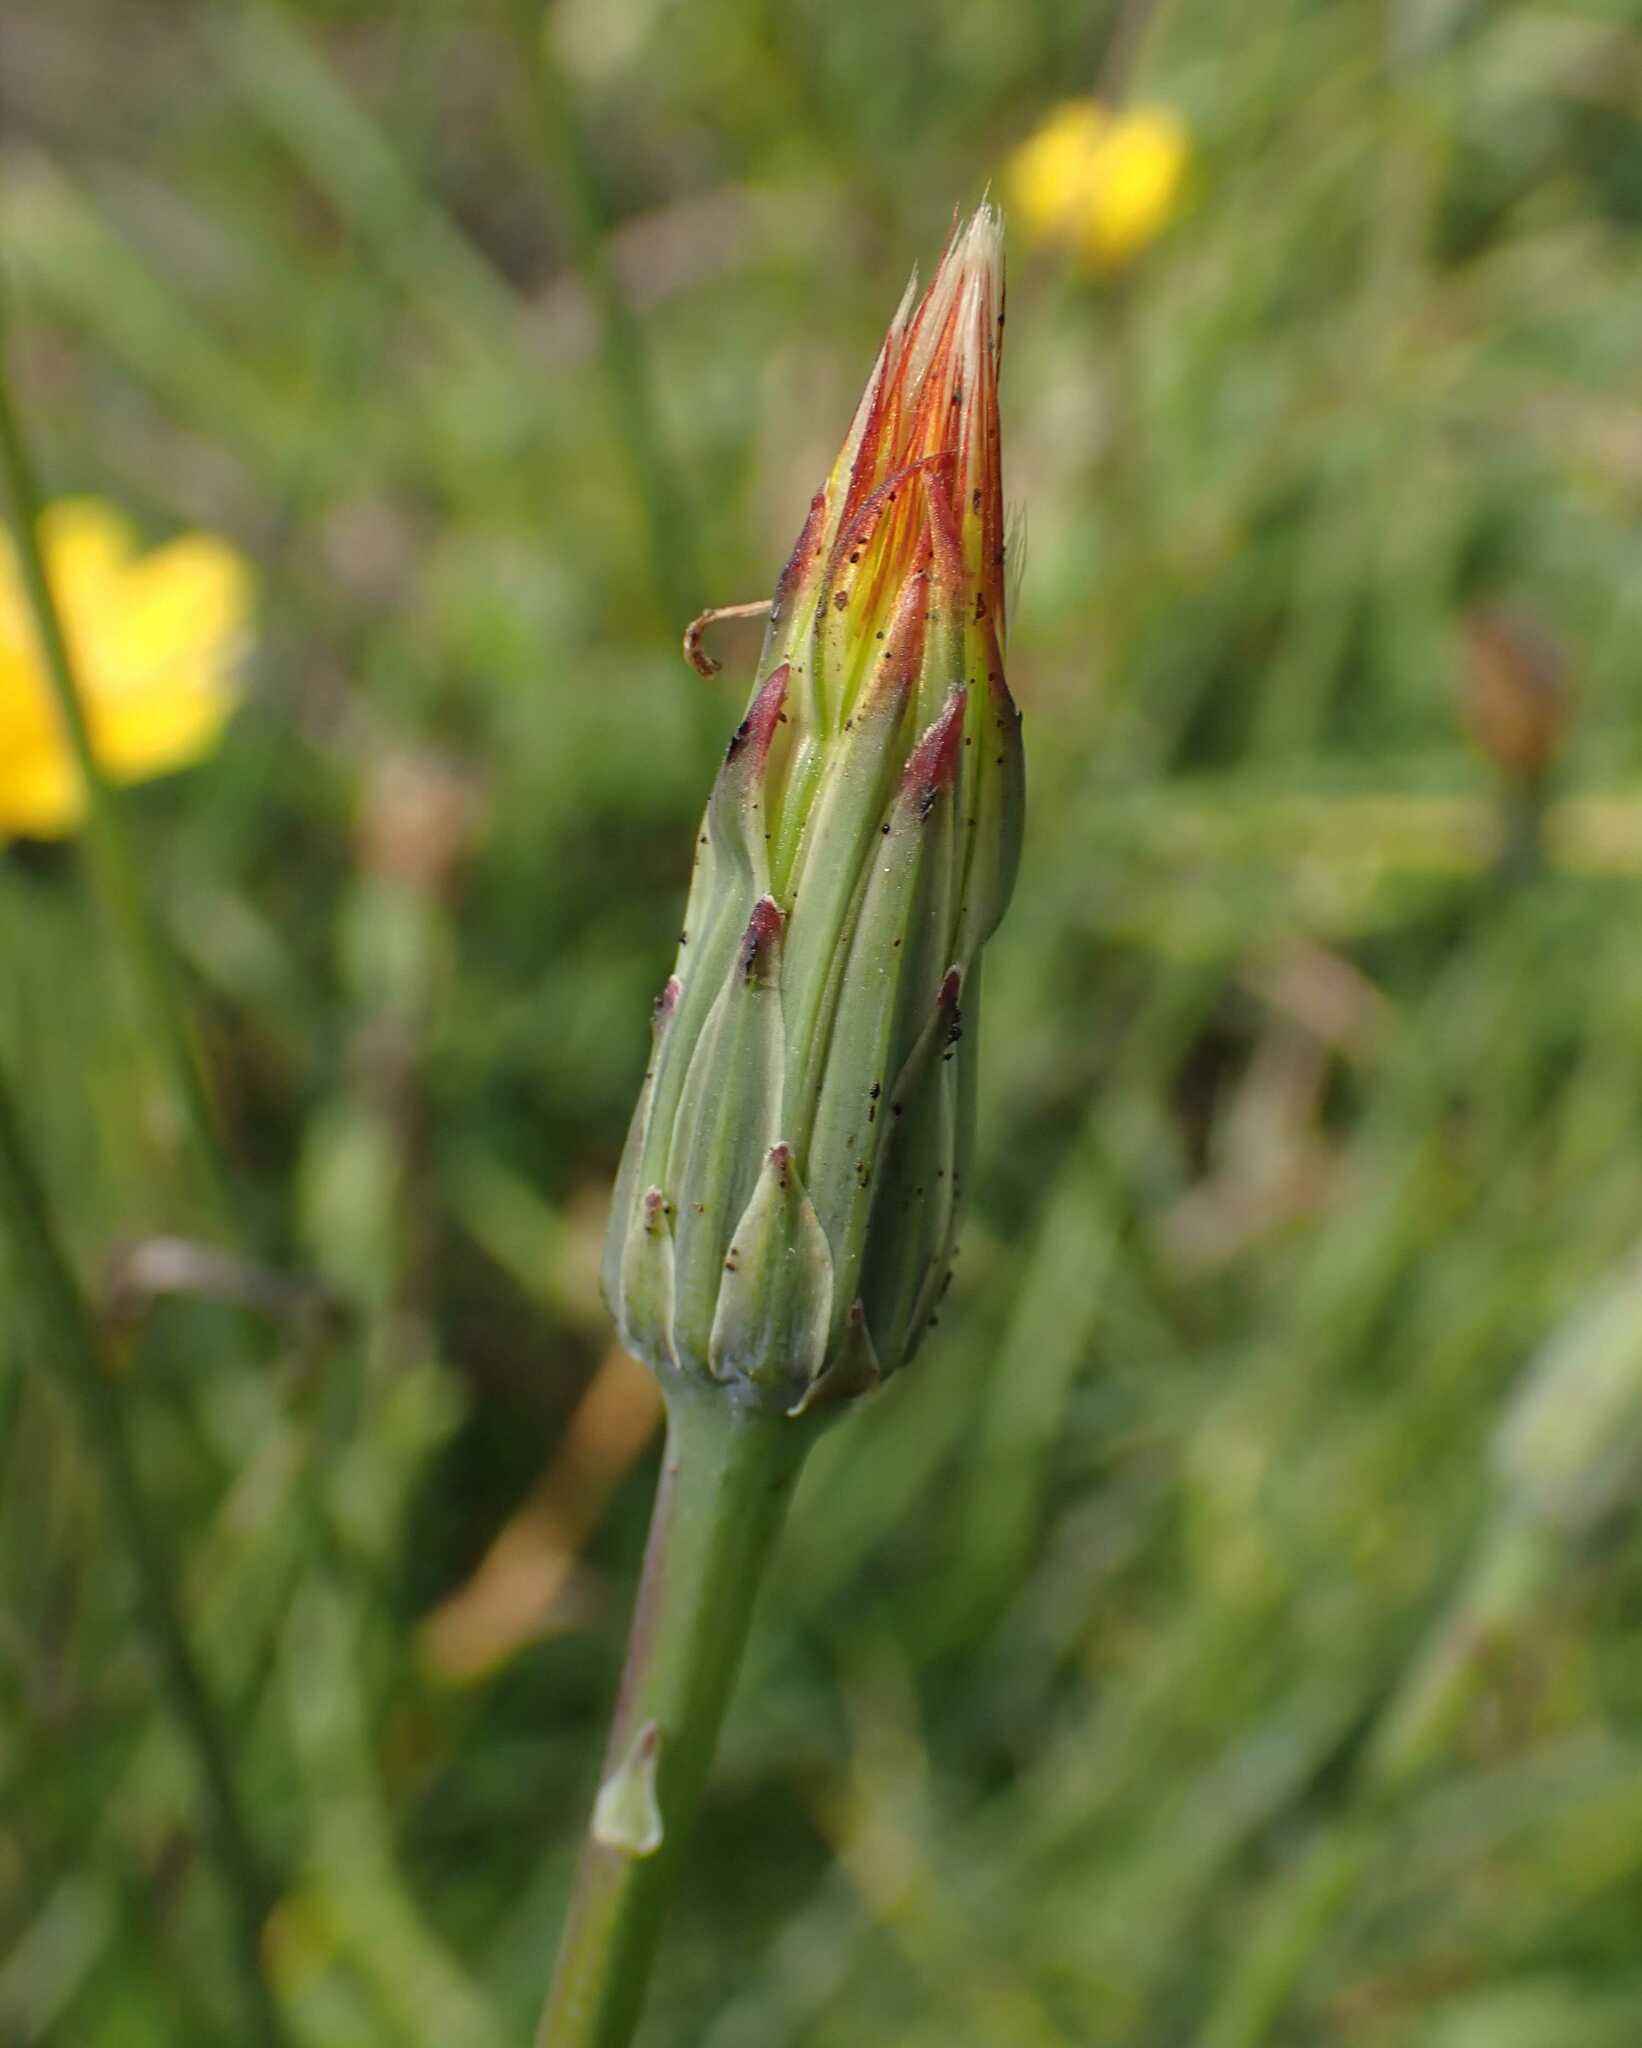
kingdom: Plantae
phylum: Tracheophyta
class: Magnoliopsida
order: Asterales
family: Asteraceae
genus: Hypochaeris
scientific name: Hypochaeris radicata
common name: Flatweed
